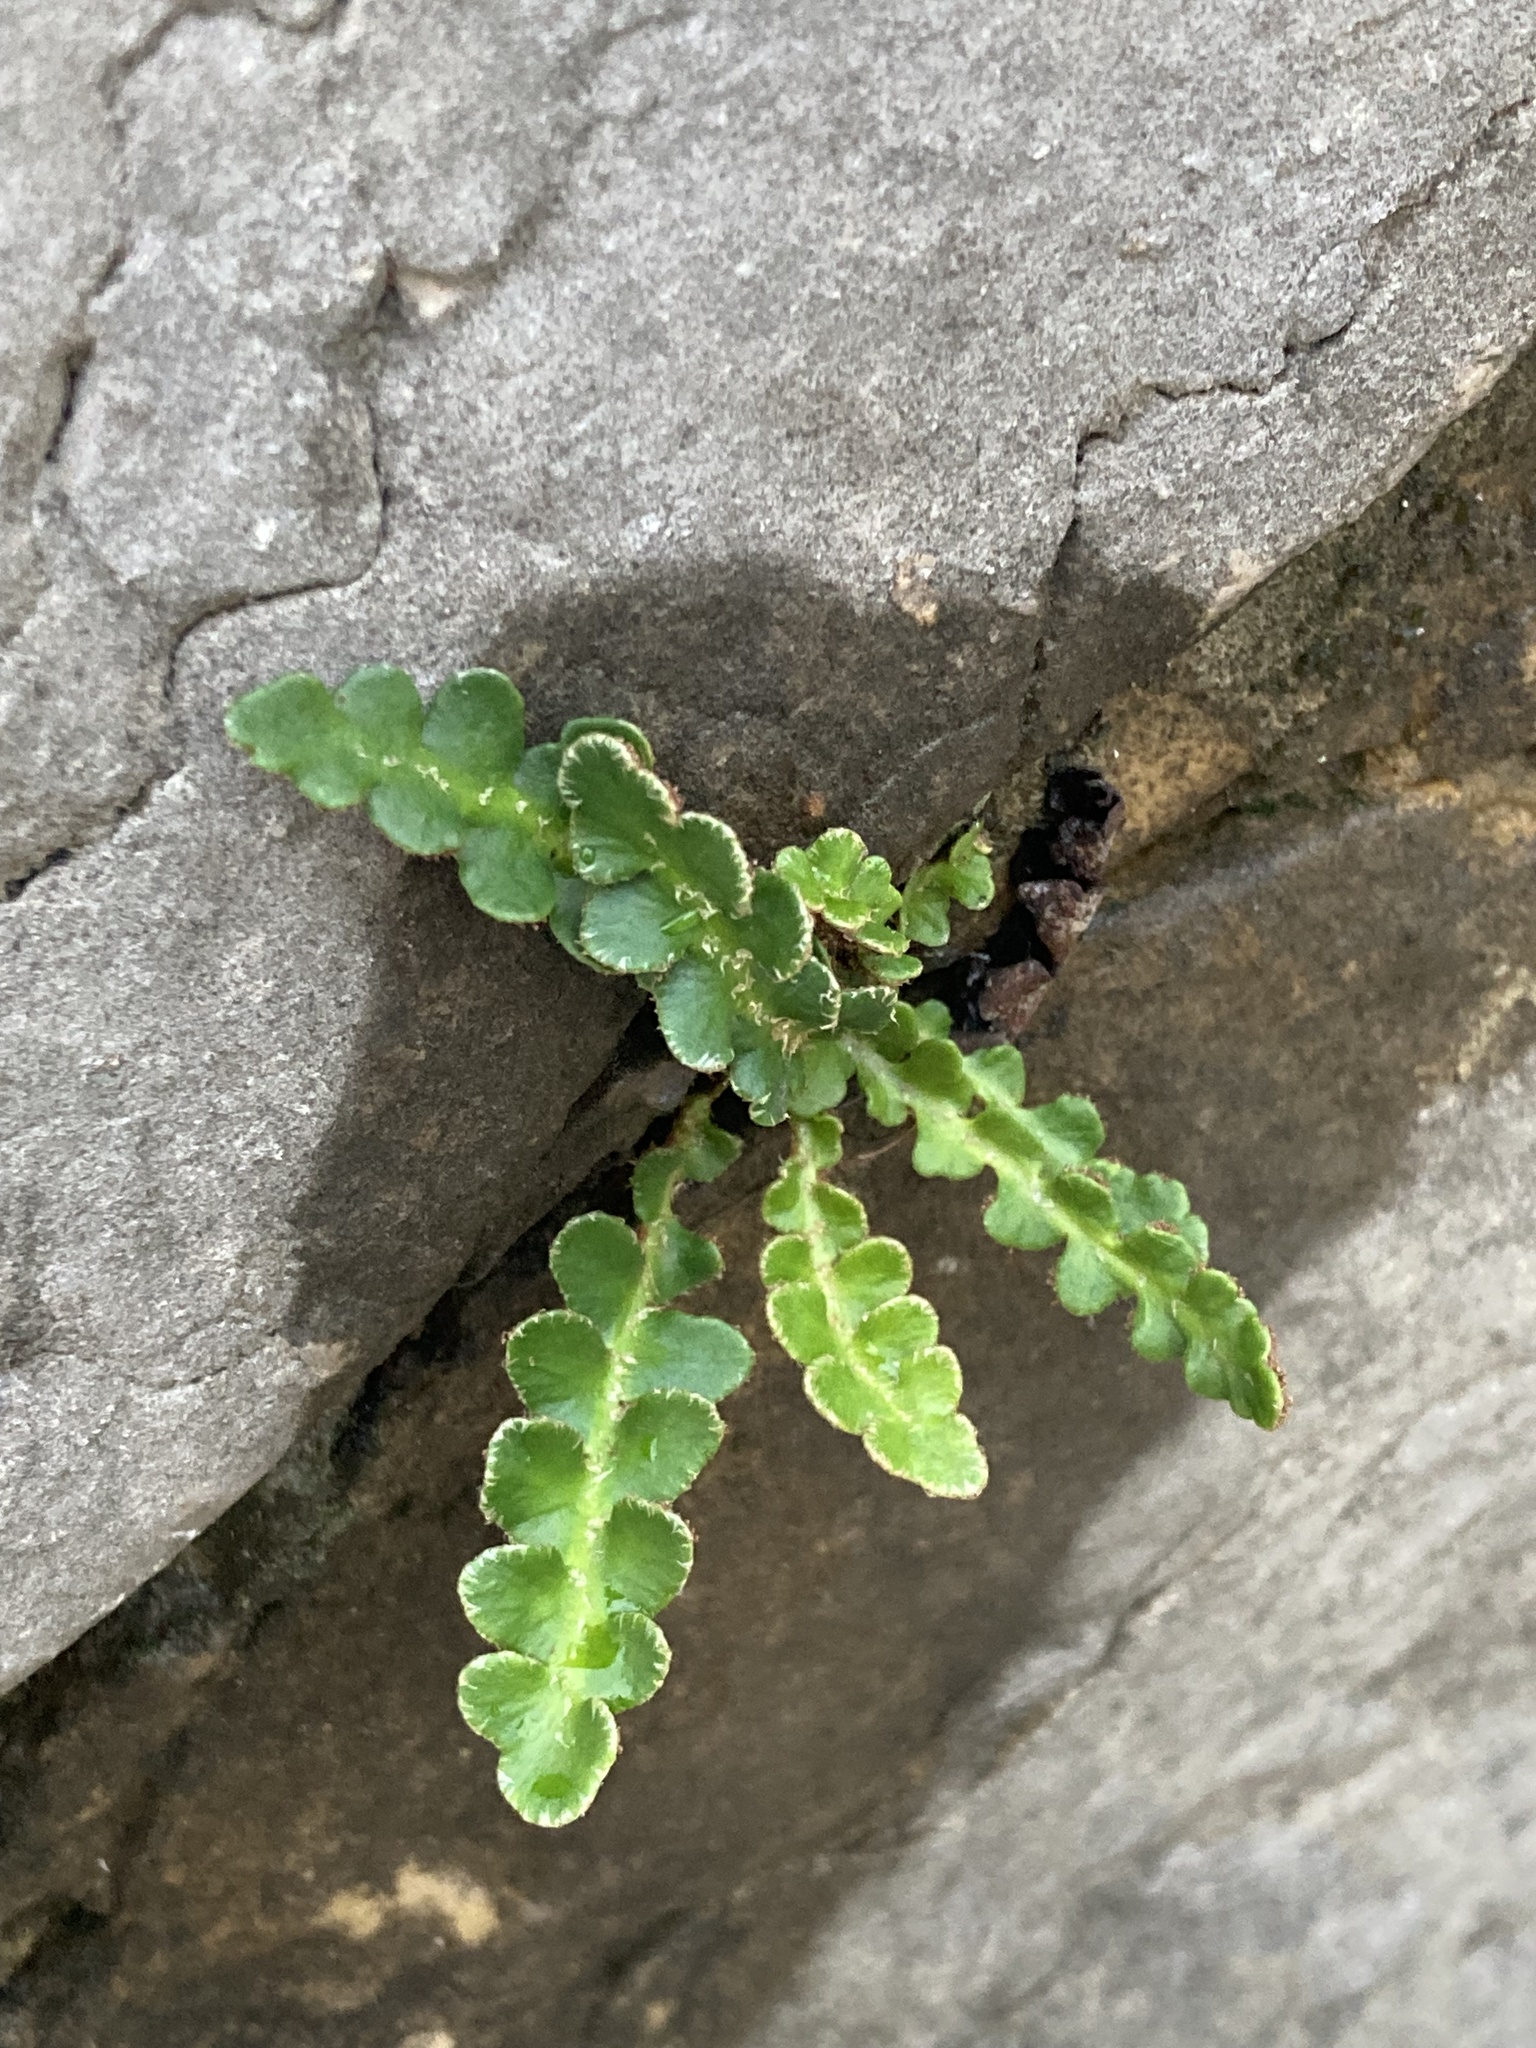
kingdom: Plantae
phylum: Tracheophyta
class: Polypodiopsida
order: Polypodiales
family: Aspleniaceae
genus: Asplenium
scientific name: Asplenium ceterach
